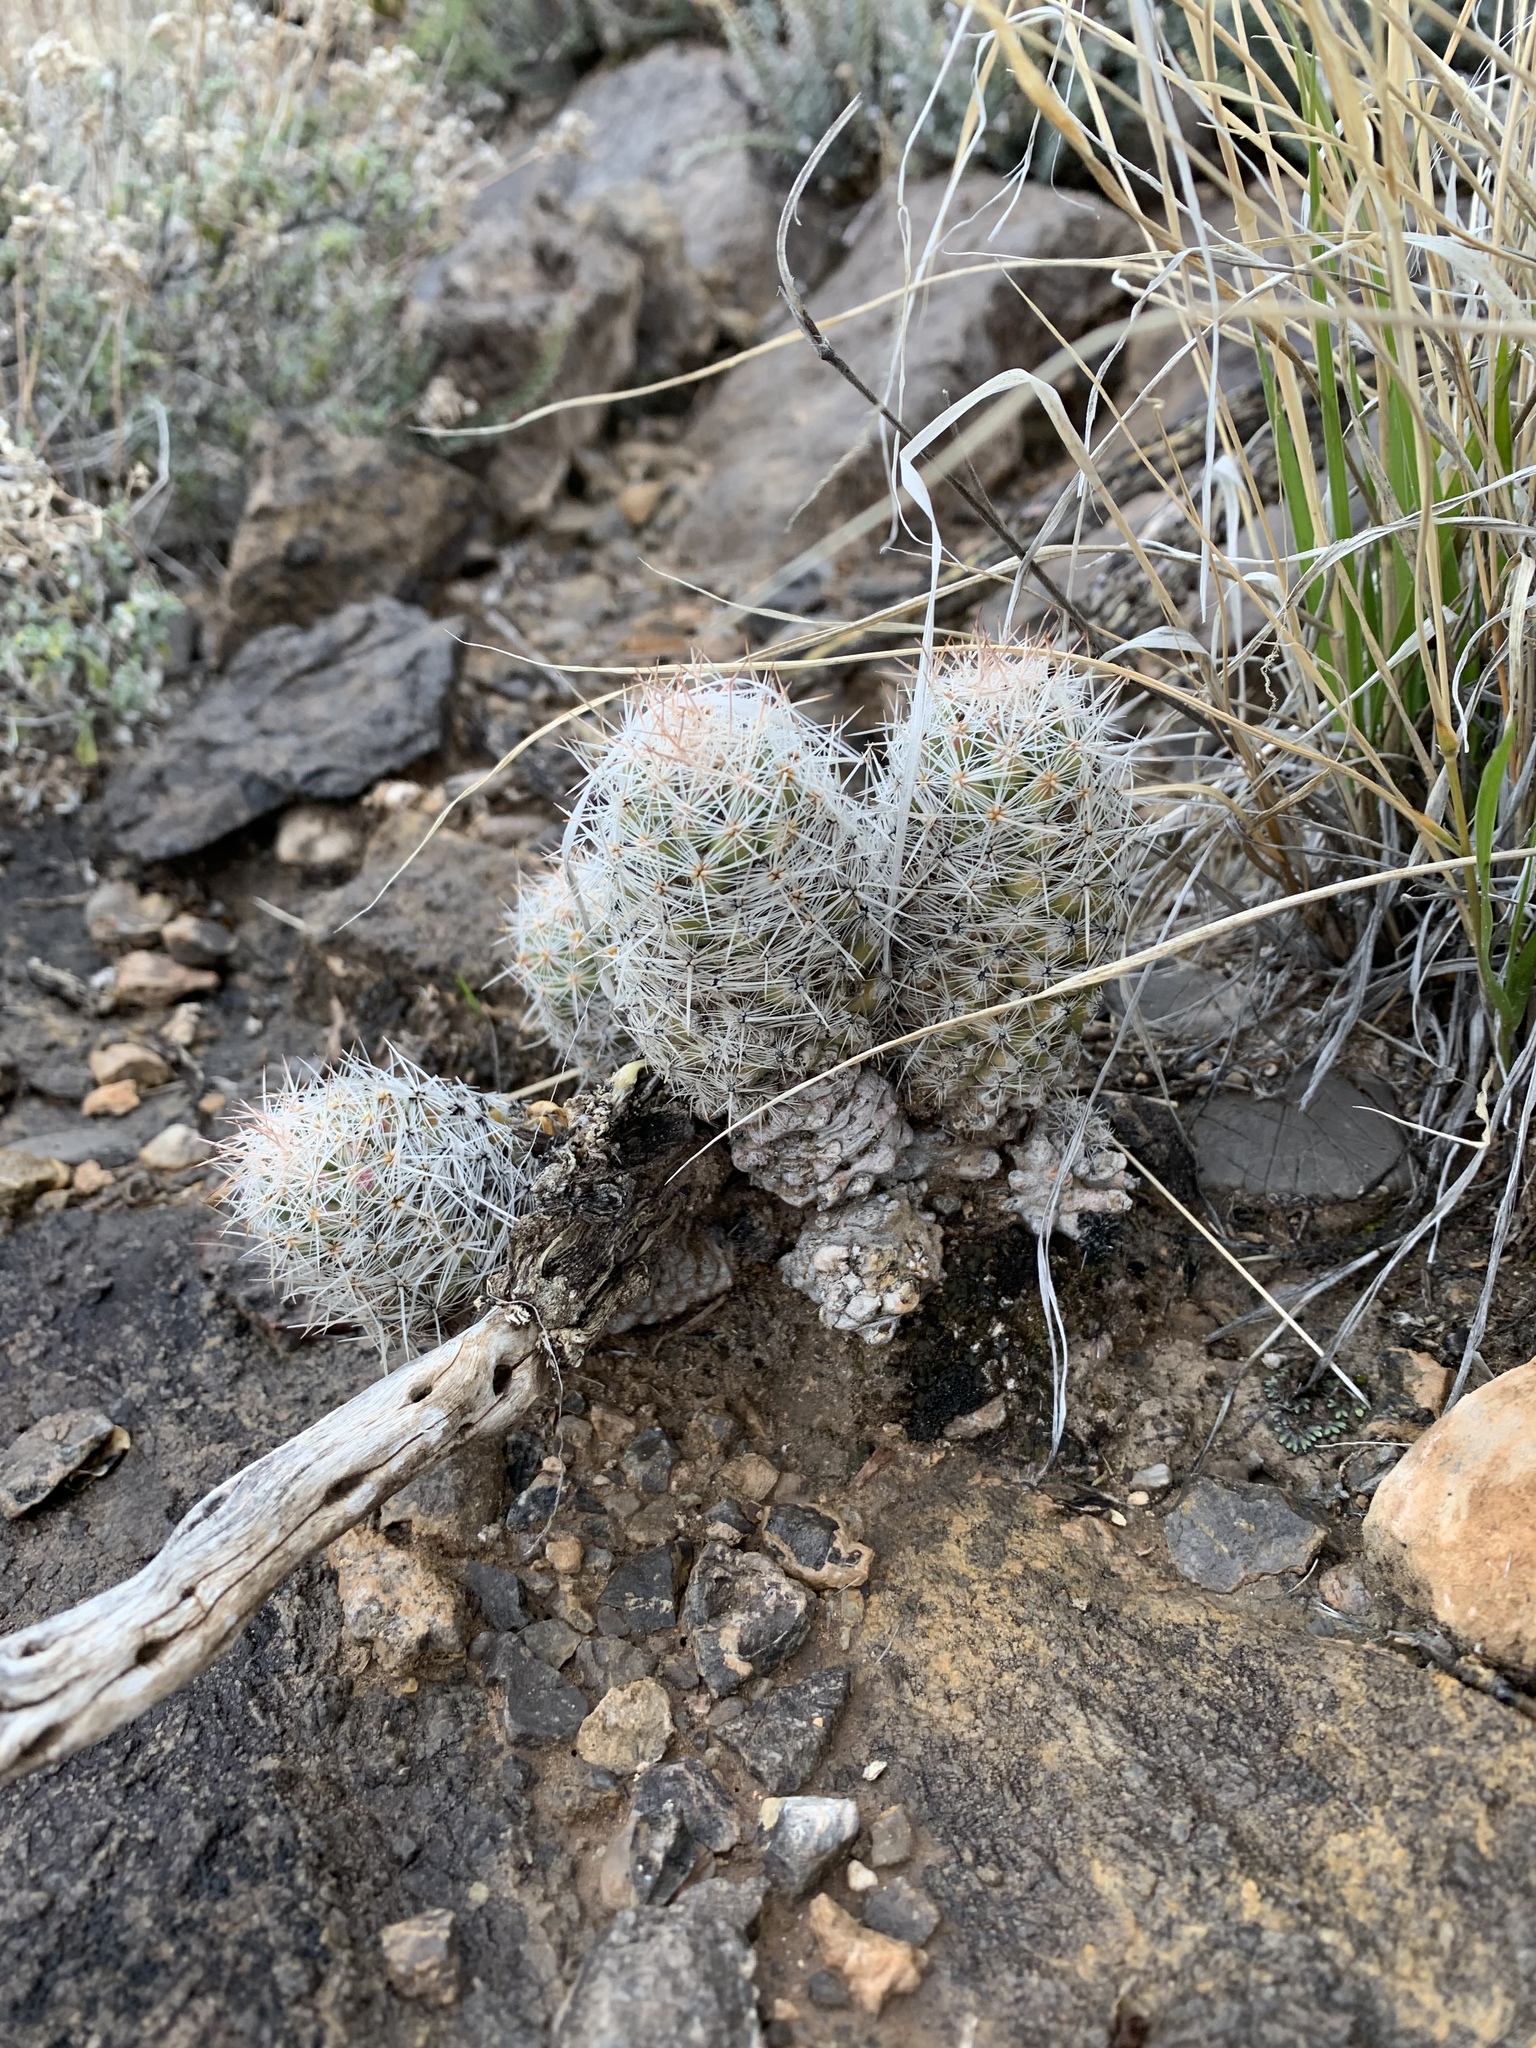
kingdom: Plantae
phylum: Tracheophyta
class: Magnoliopsida
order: Caryophyllales
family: Cactaceae
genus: Pelecyphora
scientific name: Pelecyphora tuberculosa
